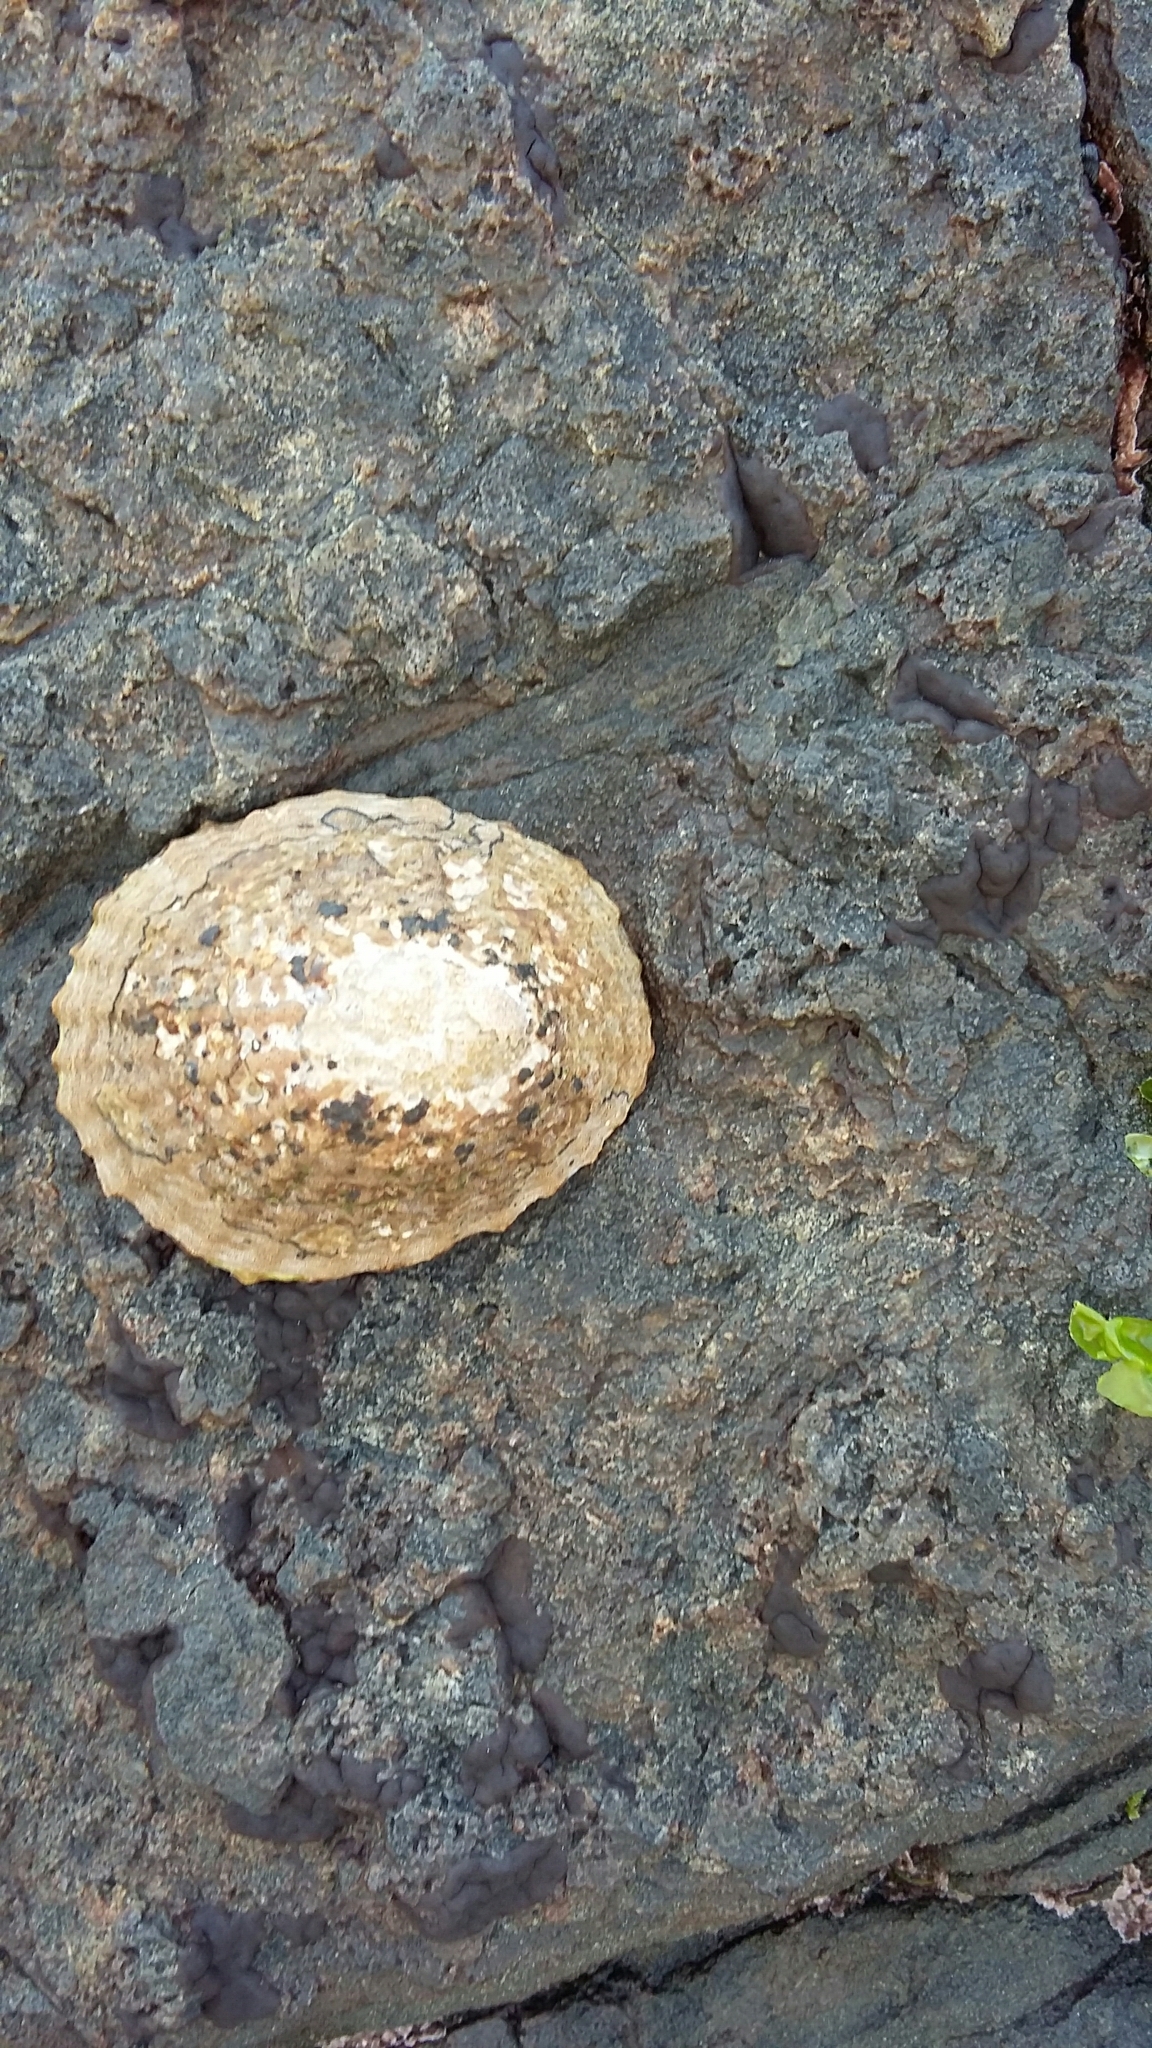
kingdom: Animalia
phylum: Mollusca
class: Gastropoda
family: Nacellidae
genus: Cellana
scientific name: Cellana denticulata
